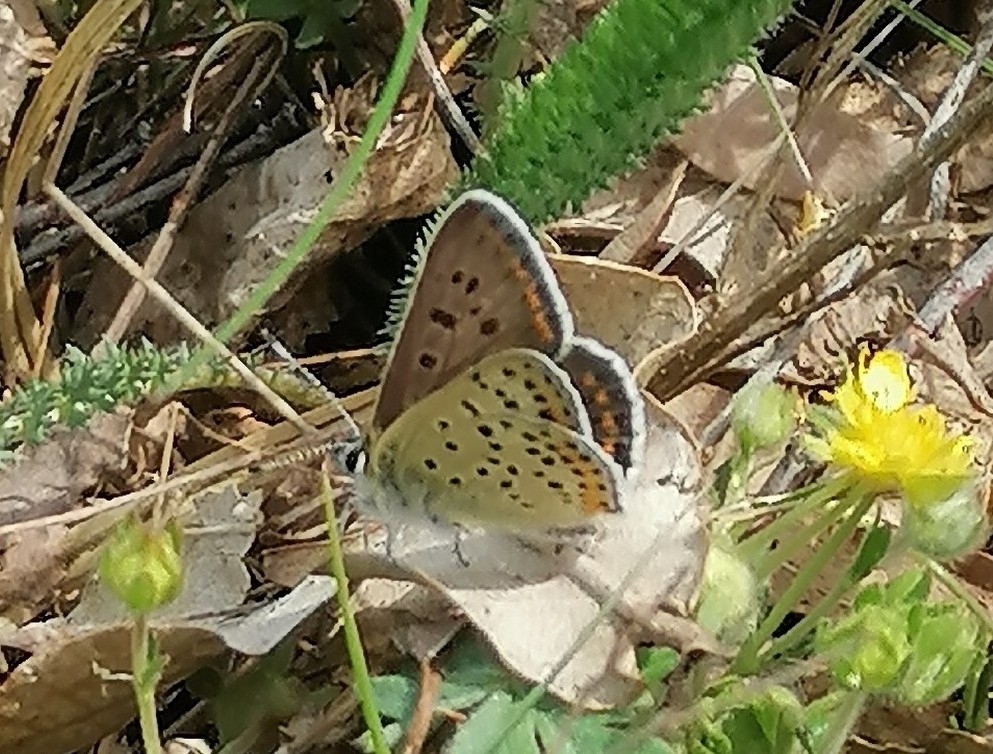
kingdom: Animalia
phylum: Arthropoda
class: Insecta
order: Lepidoptera
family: Lycaenidae
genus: Loweia
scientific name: Loweia tityrus
